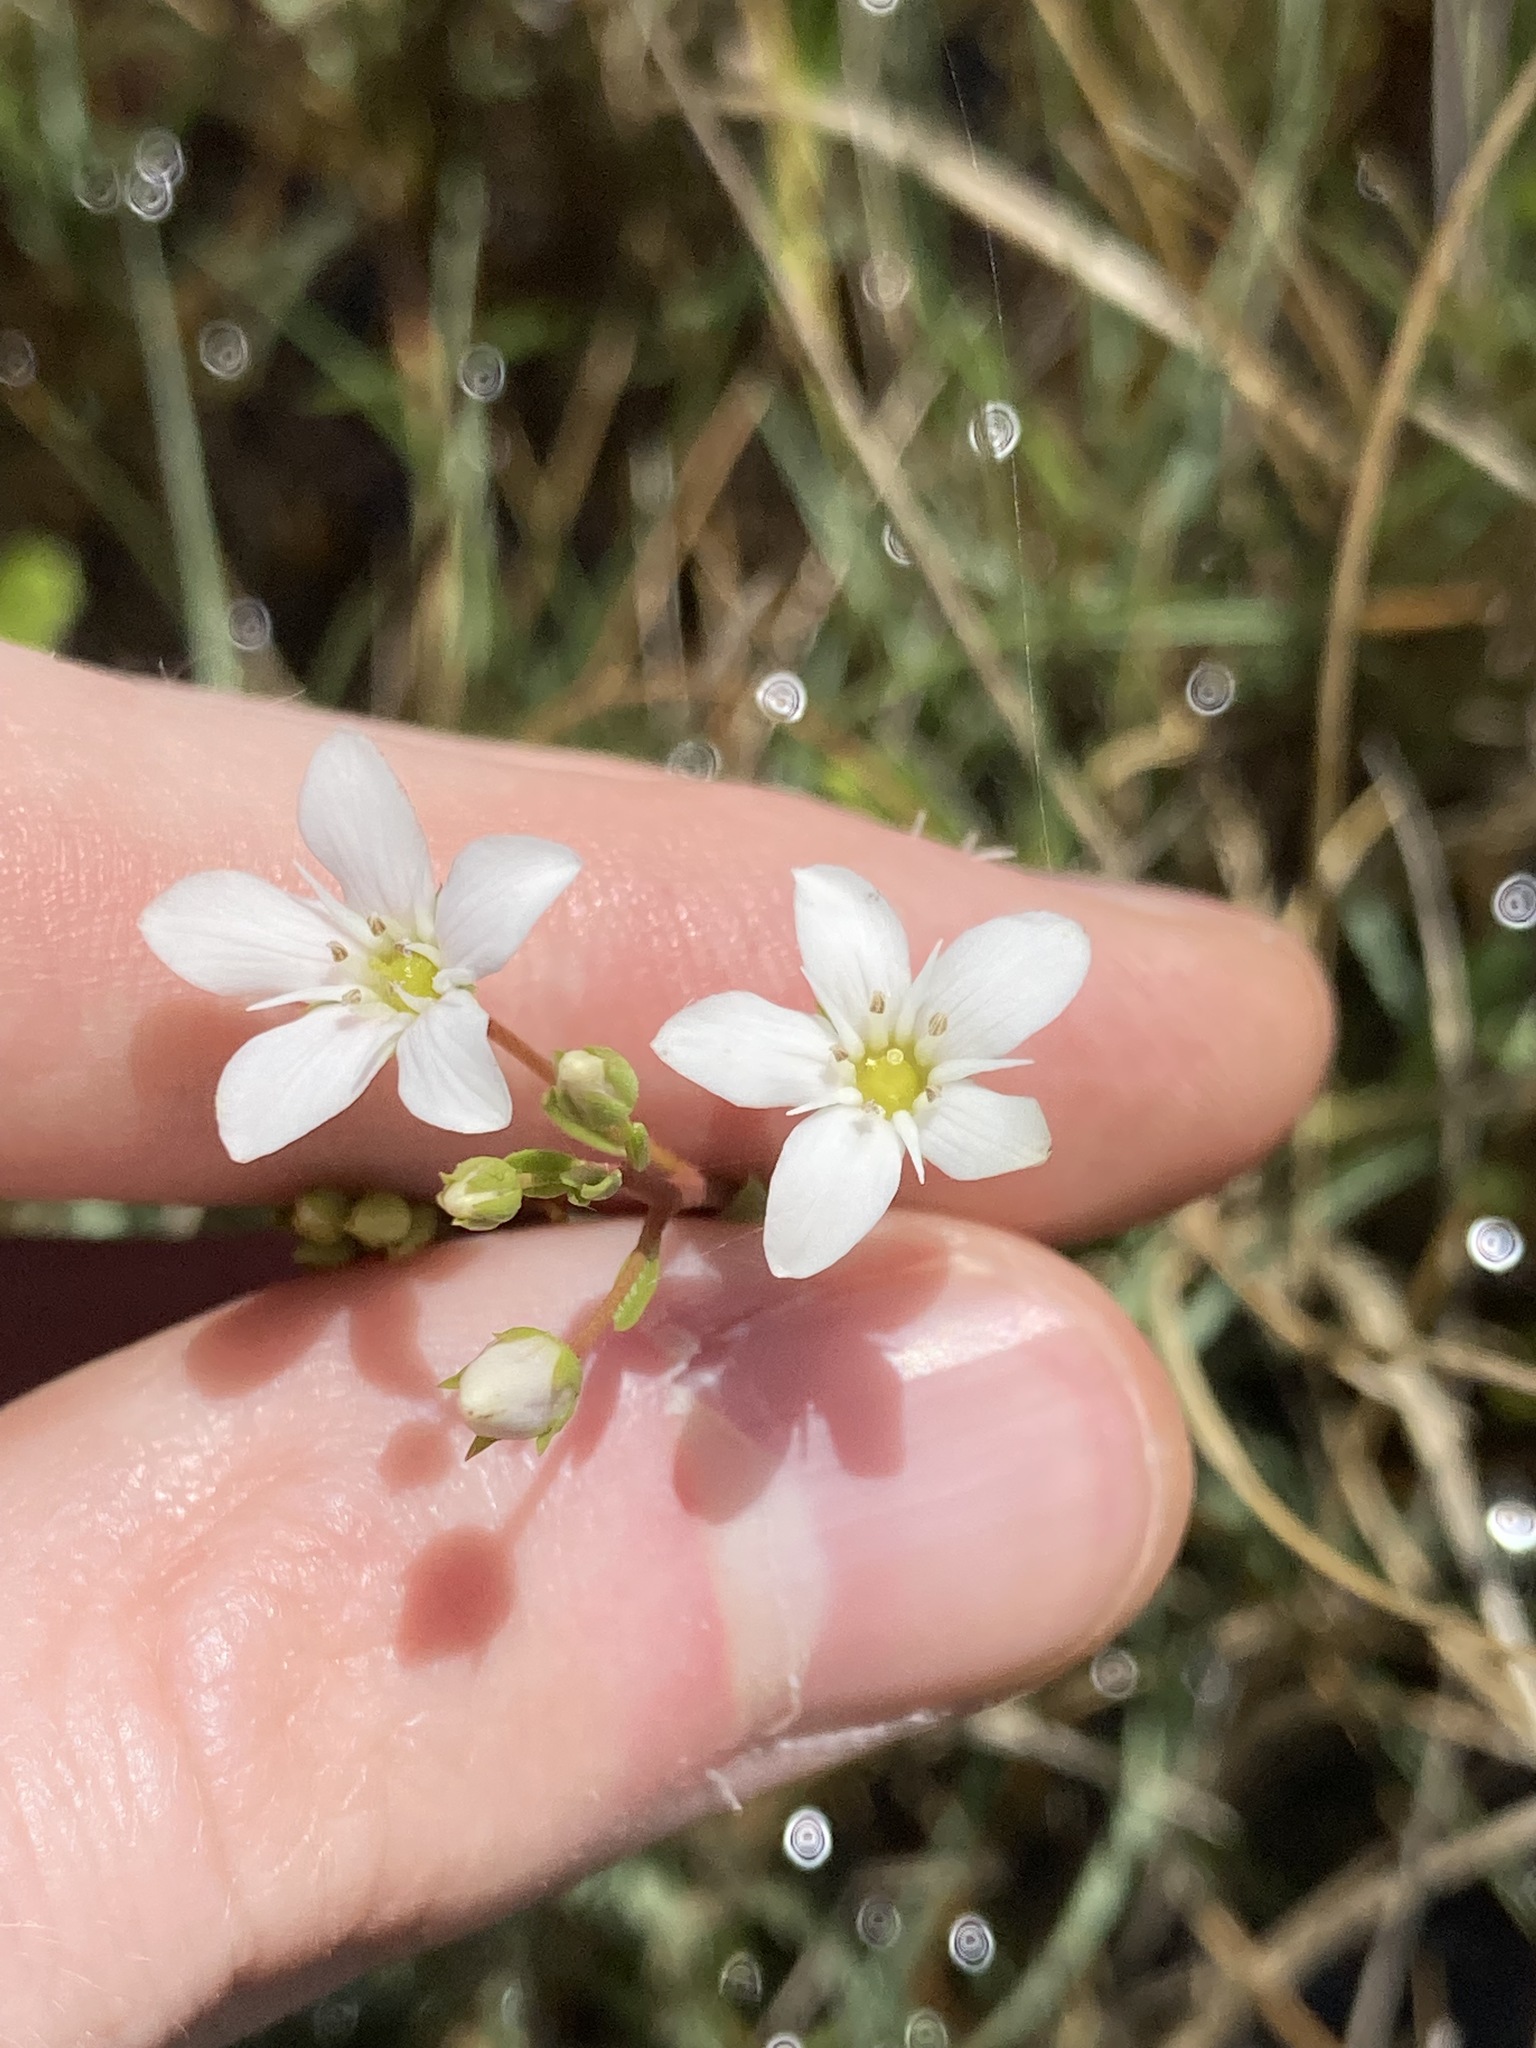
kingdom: Plantae
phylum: Tracheophyta
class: Magnoliopsida
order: Ericales
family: Primulaceae
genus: Samolus
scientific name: Samolus repens
